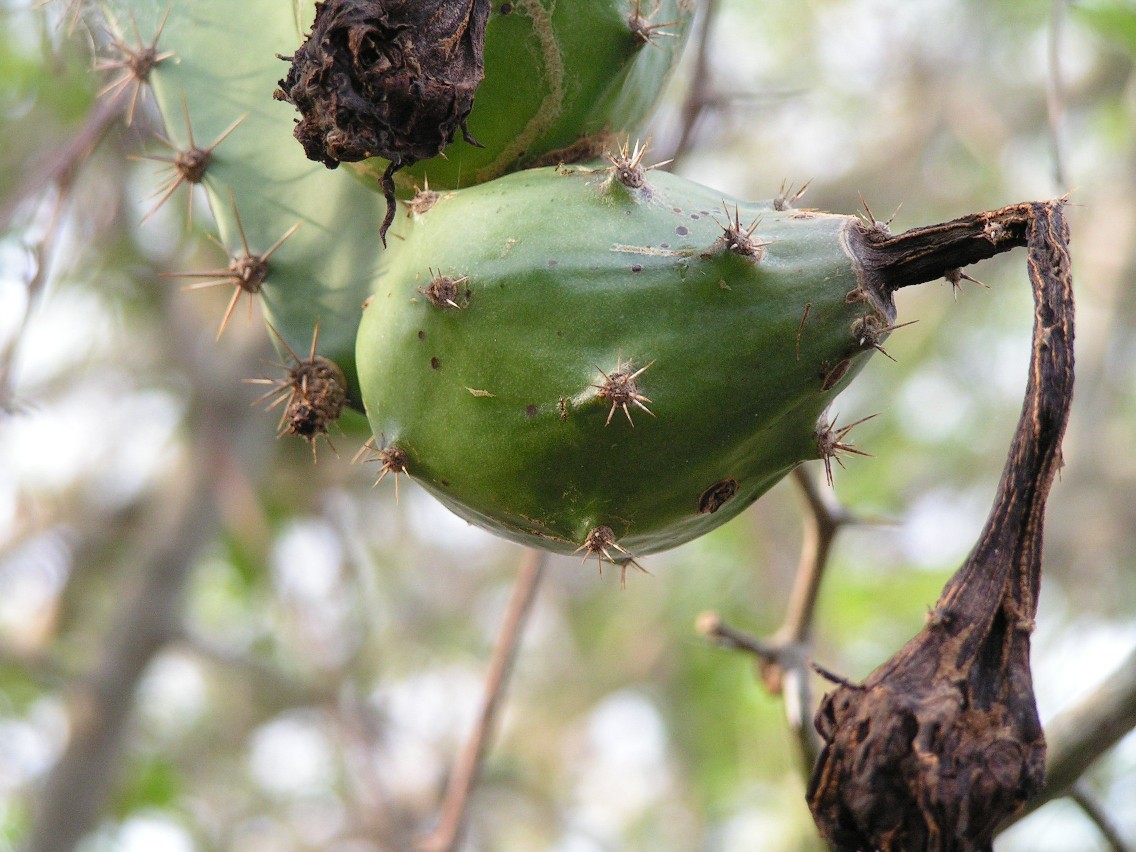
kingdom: Plantae
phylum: Tracheophyta
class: Magnoliopsida
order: Caryophyllales
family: Cactaceae
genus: Acanthocereus
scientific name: Acanthocereus tetragonus
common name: Triangle cactus
